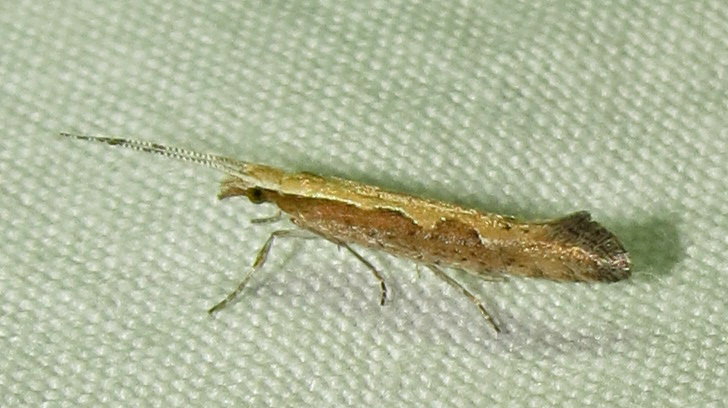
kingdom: Animalia
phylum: Arthropoda
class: Insecta
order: Lepidoptera
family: Plutellidae
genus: Plutella
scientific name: Plutella xylostella
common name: Diamond-back moth
